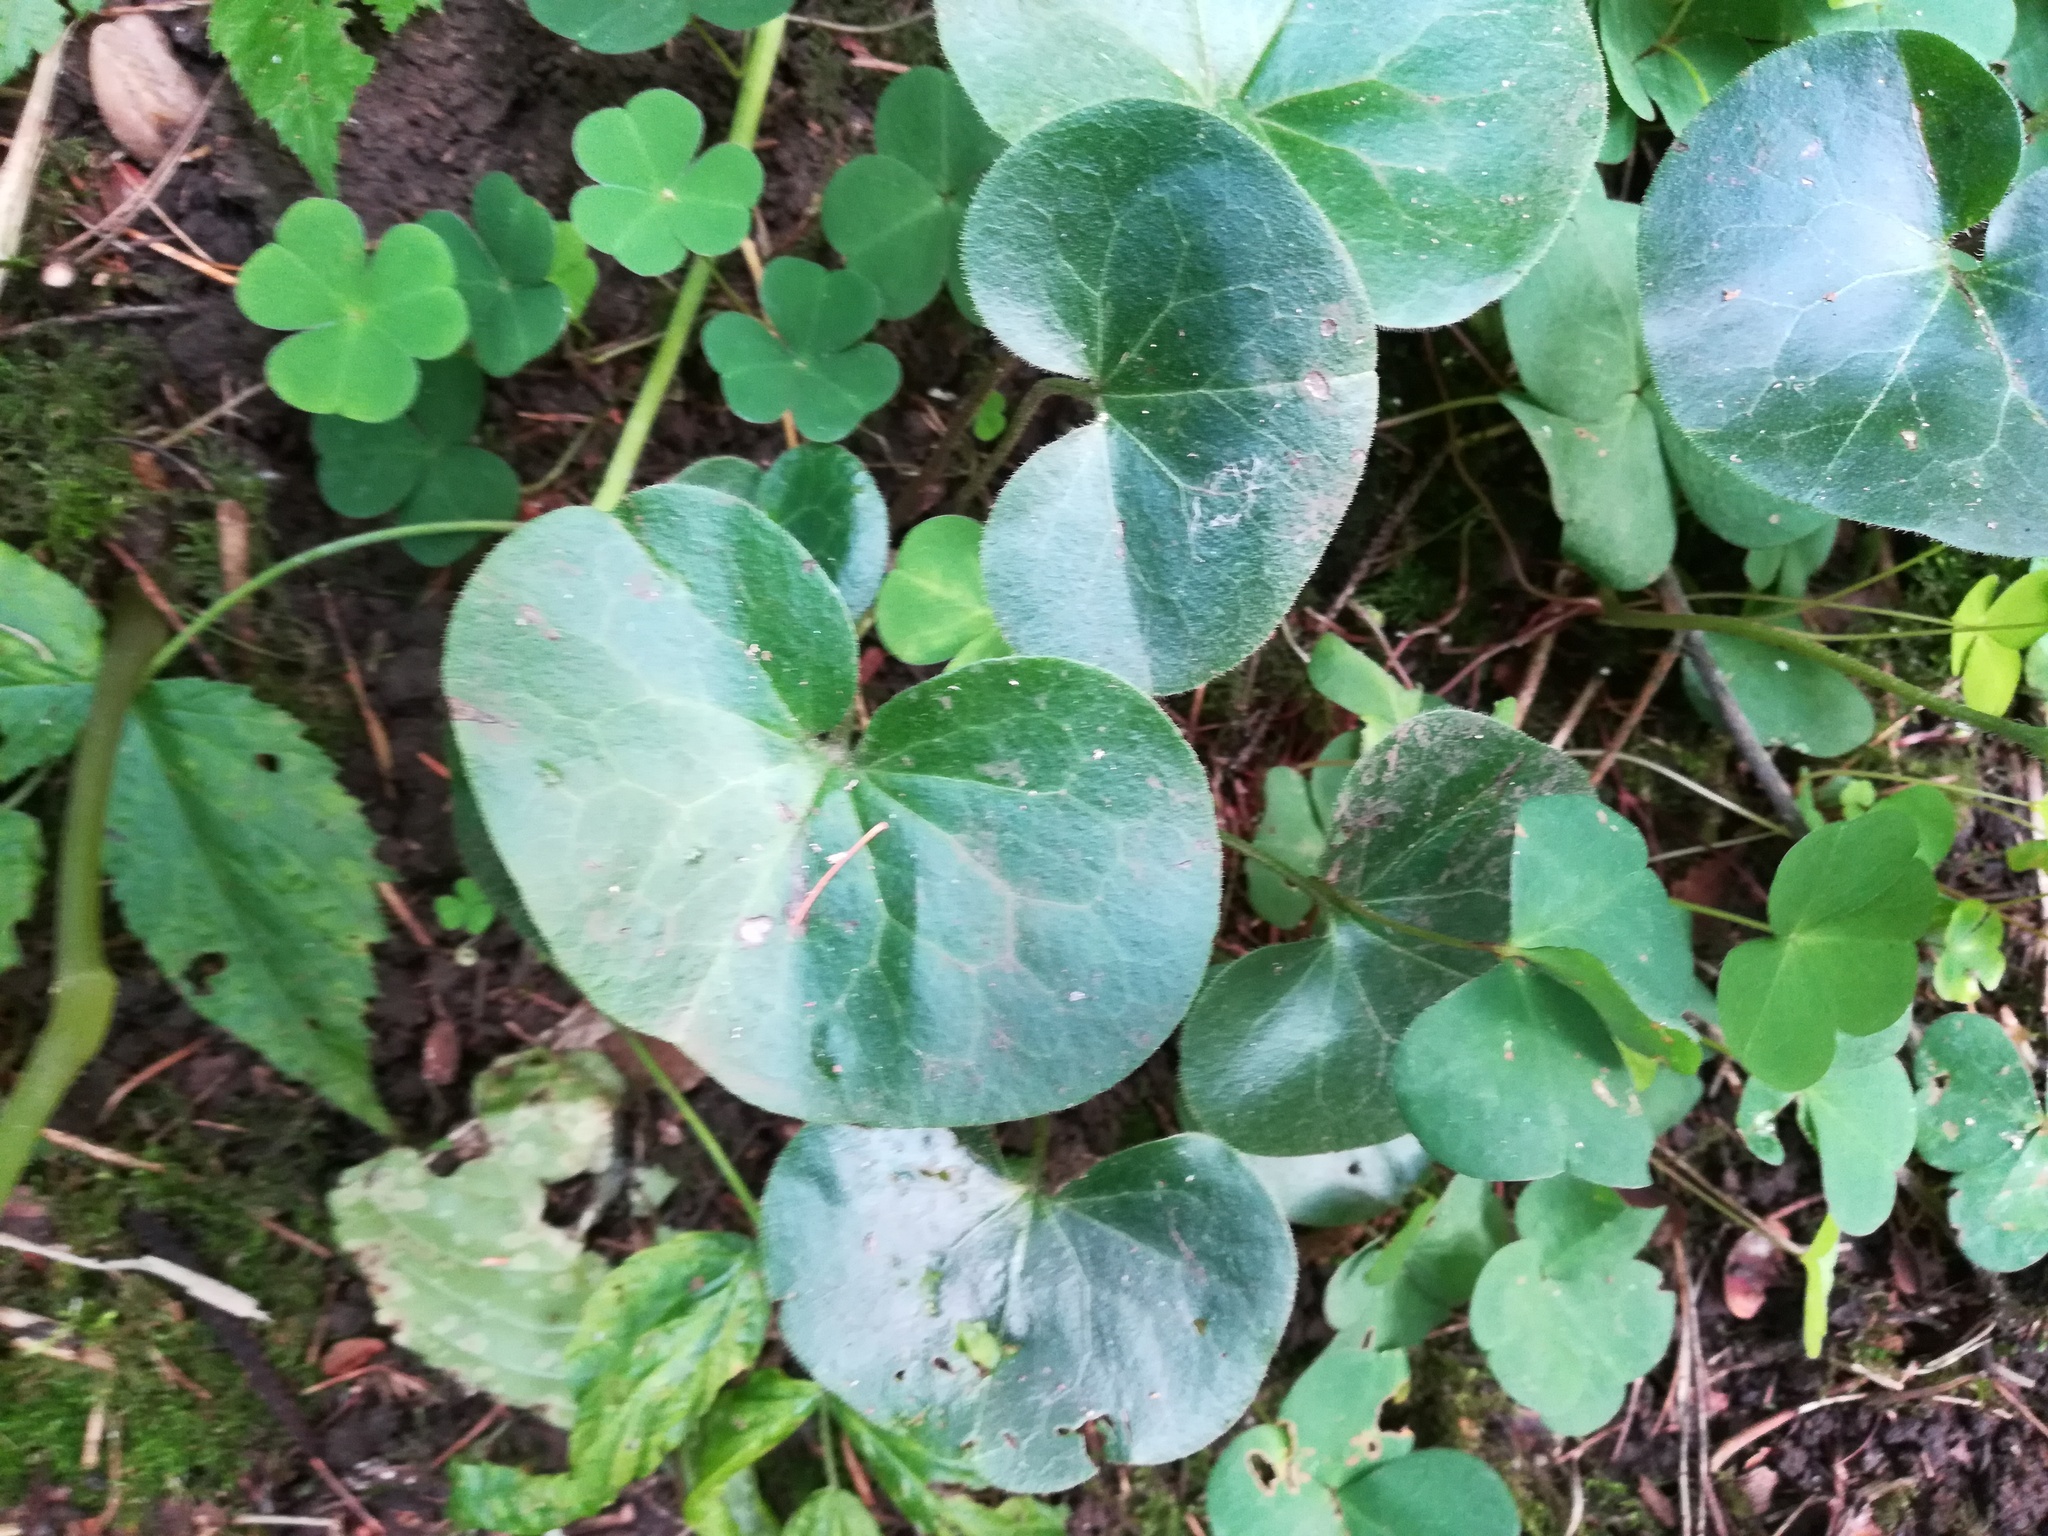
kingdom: Plantae
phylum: Tracheophyta
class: Magnoliopsida
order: Piperales
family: Aristolochiaceae
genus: Asarum
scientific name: Asarum europaeum
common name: Asarabacca
